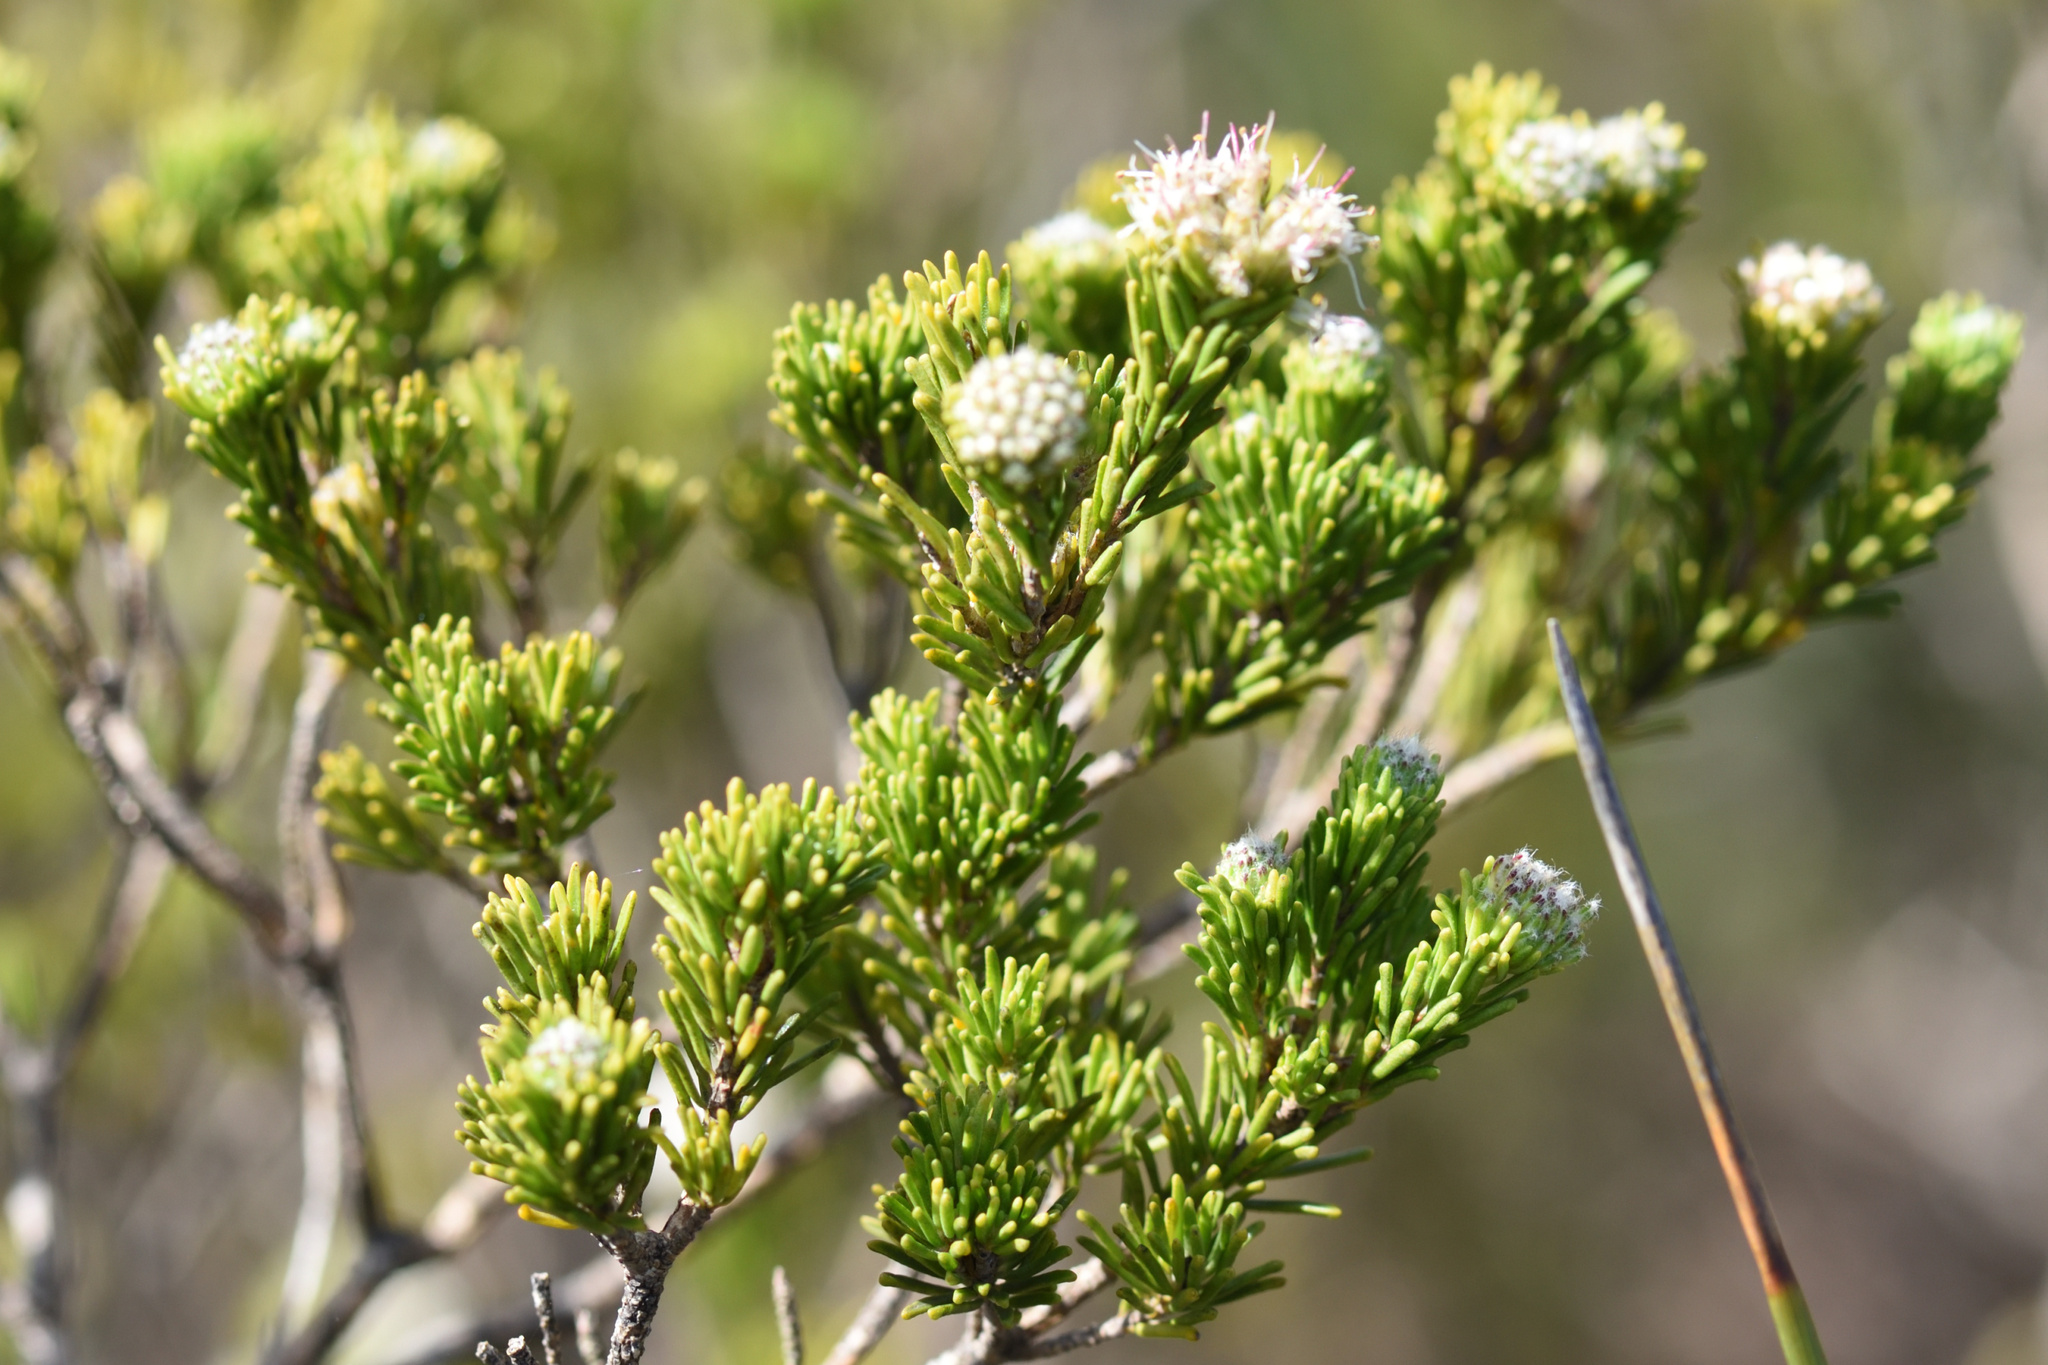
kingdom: Plantae
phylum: Tracheophyta
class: Magnoliopsida
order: Sapindales
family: Rutaceae
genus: Agathosma
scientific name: Agathosma gonaquensis
